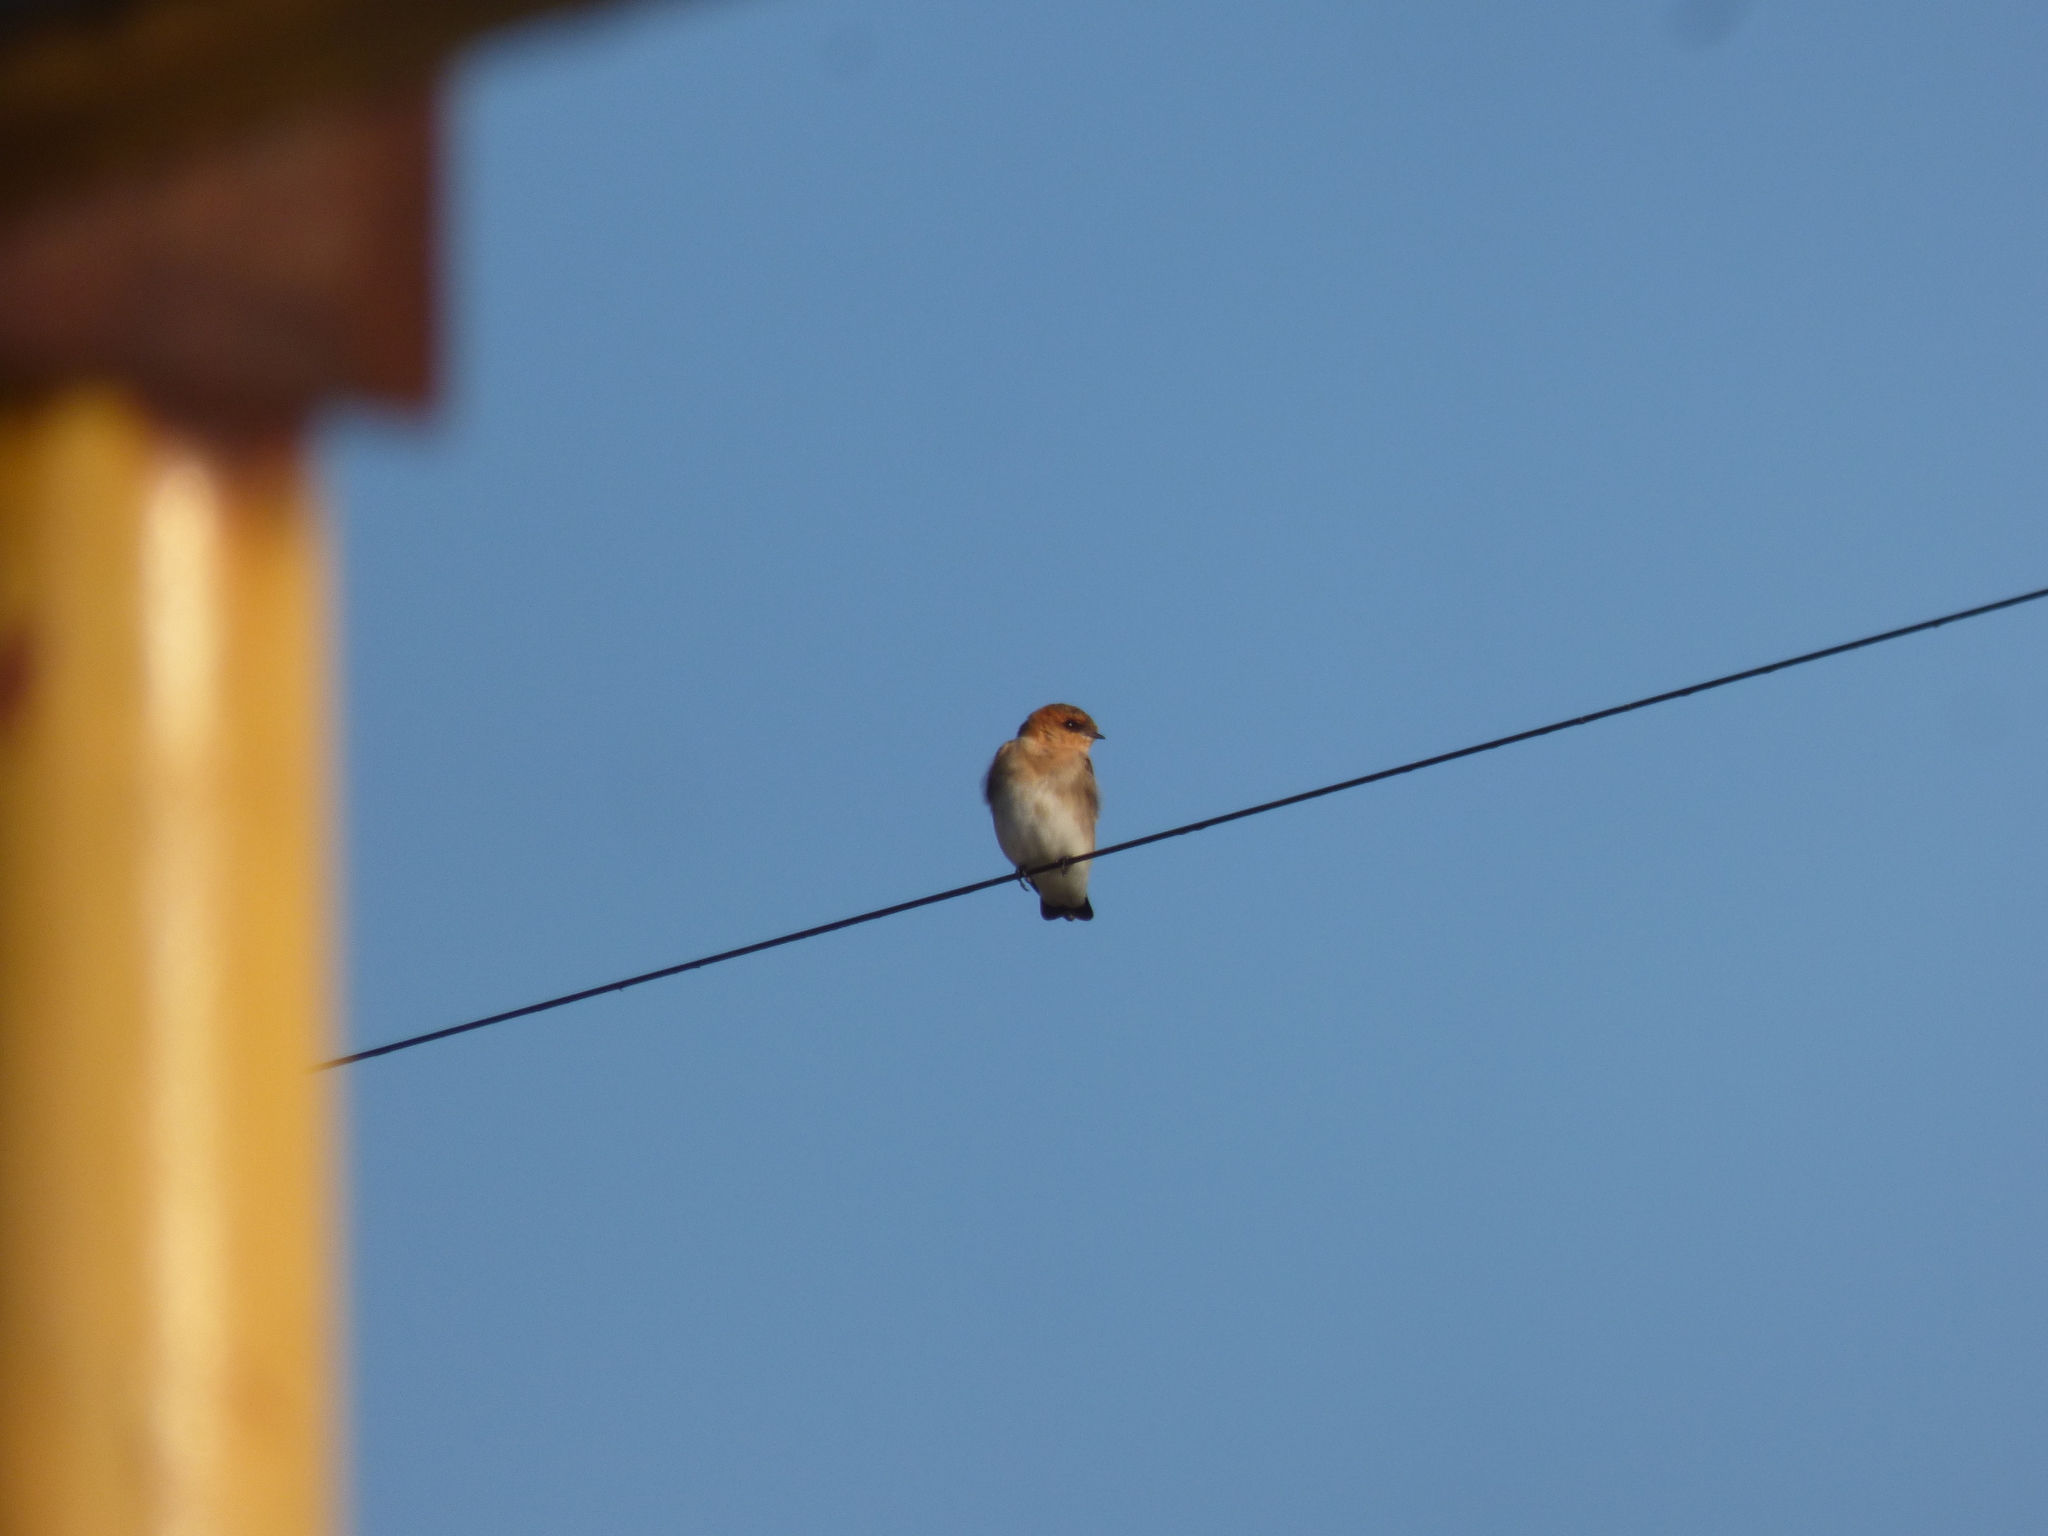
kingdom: Animalia
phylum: Chordata
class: Aves
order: Passeriformes
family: Hirundinidae
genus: Alopochelidon
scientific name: Alopochelidon fucata
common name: Tawny-headed swallow
